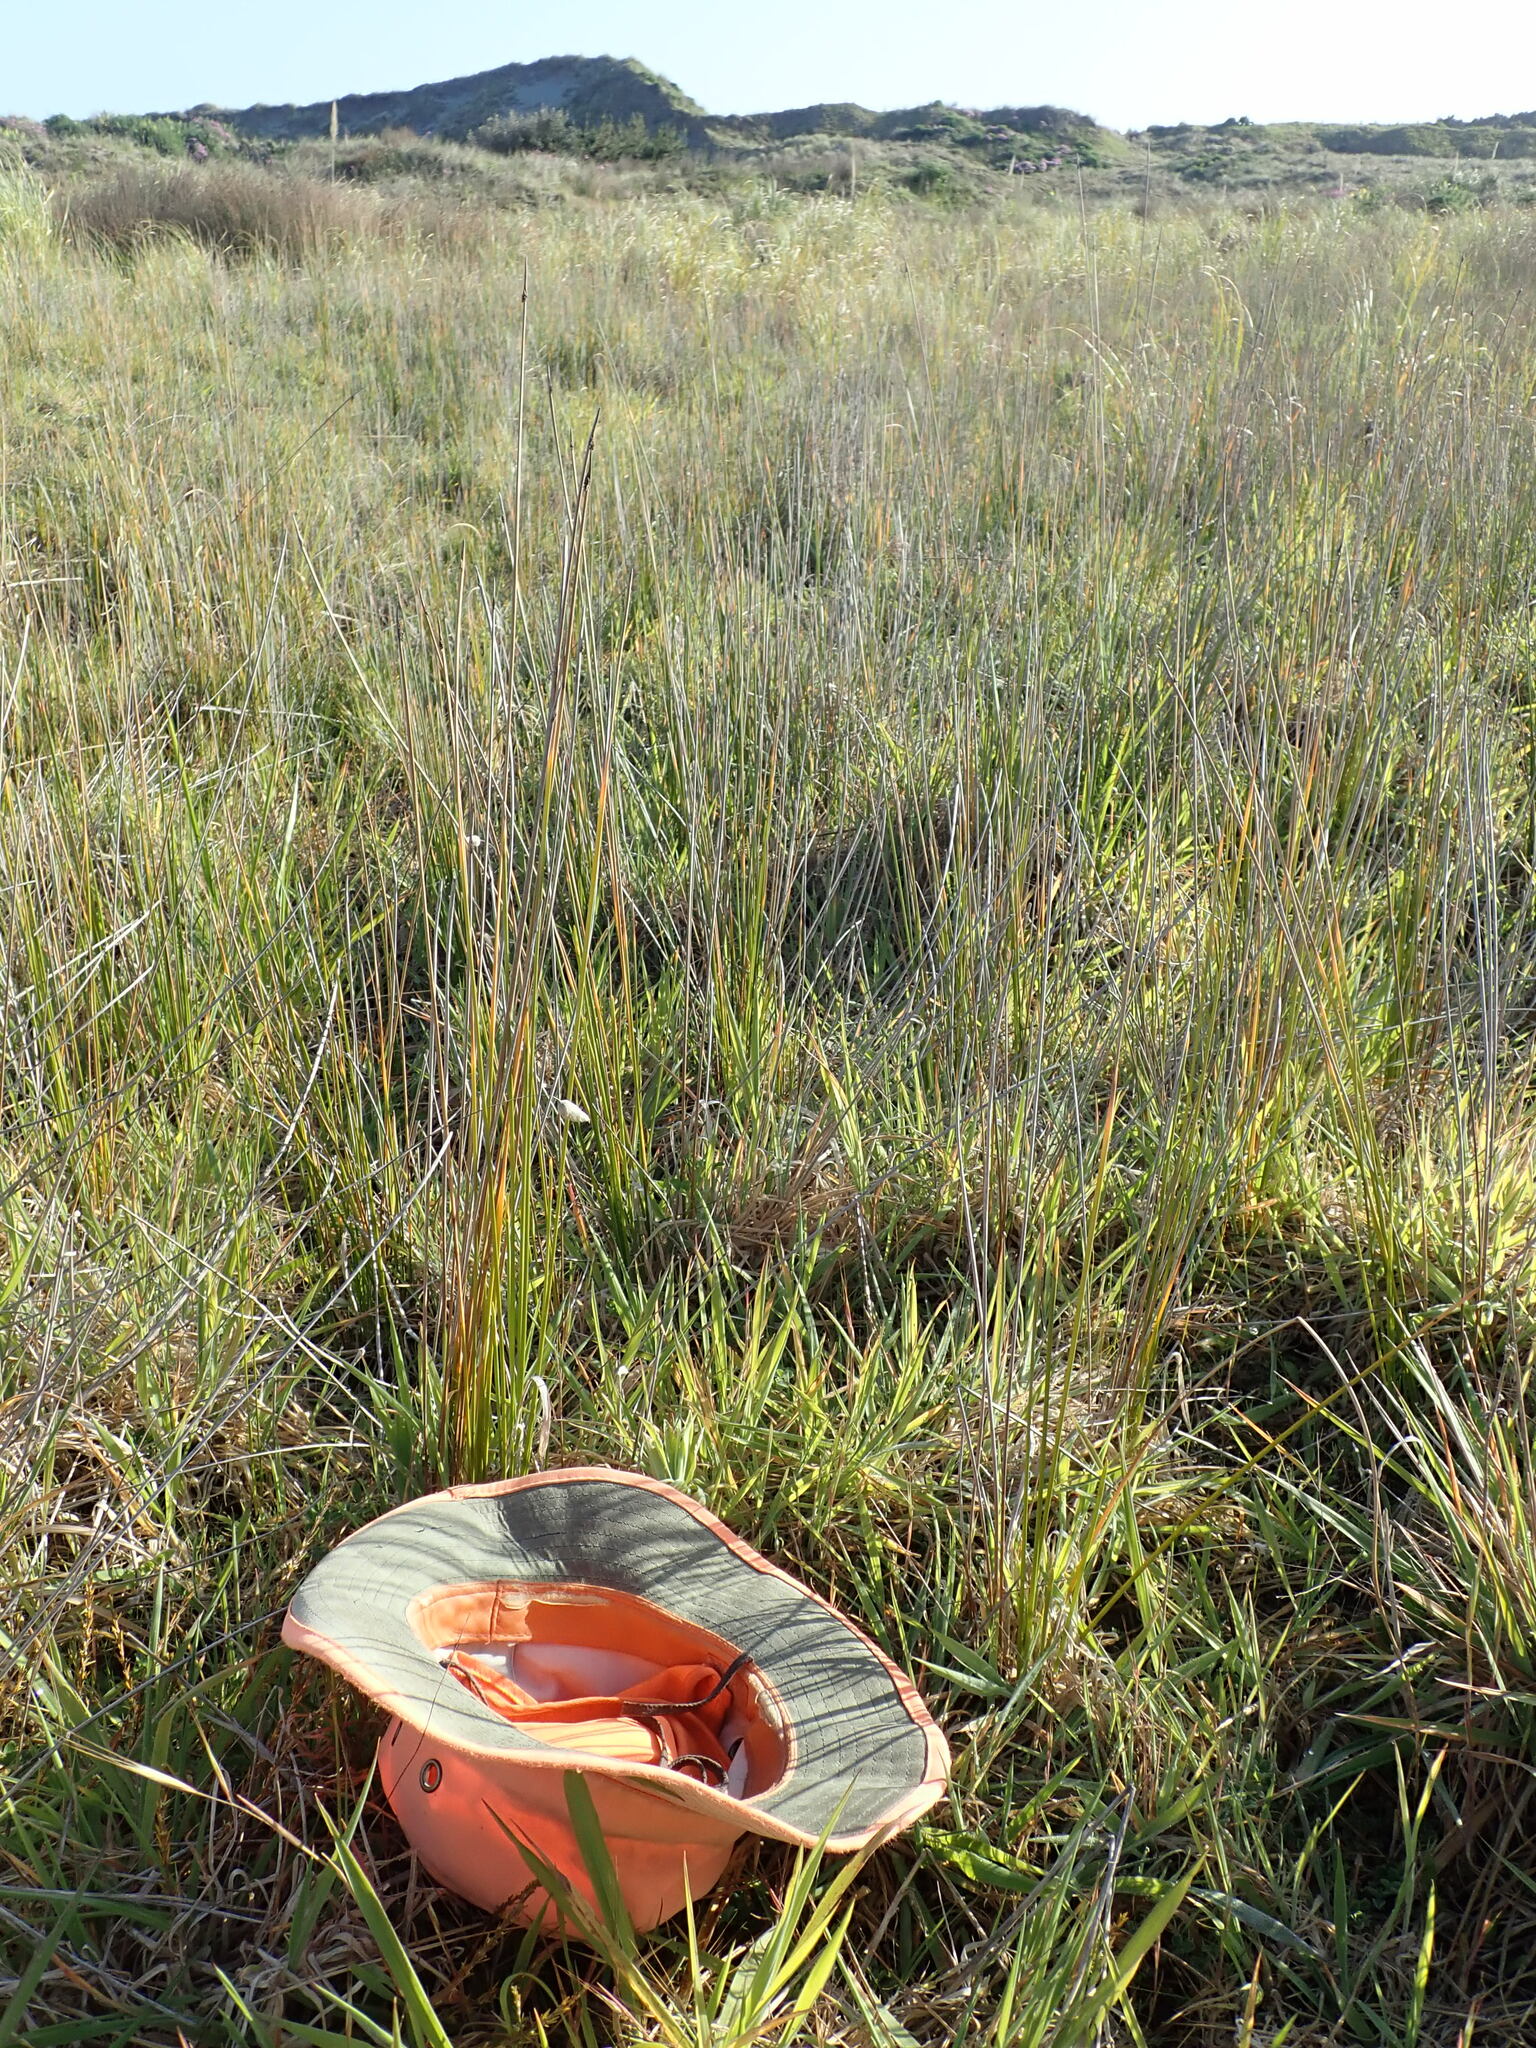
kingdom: Plantae
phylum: Tracheophyta
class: Magnoliopsida
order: Gentianales
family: Rubiaceae
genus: Coprosma
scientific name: Coprosma acerosa
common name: Sand coprosma
